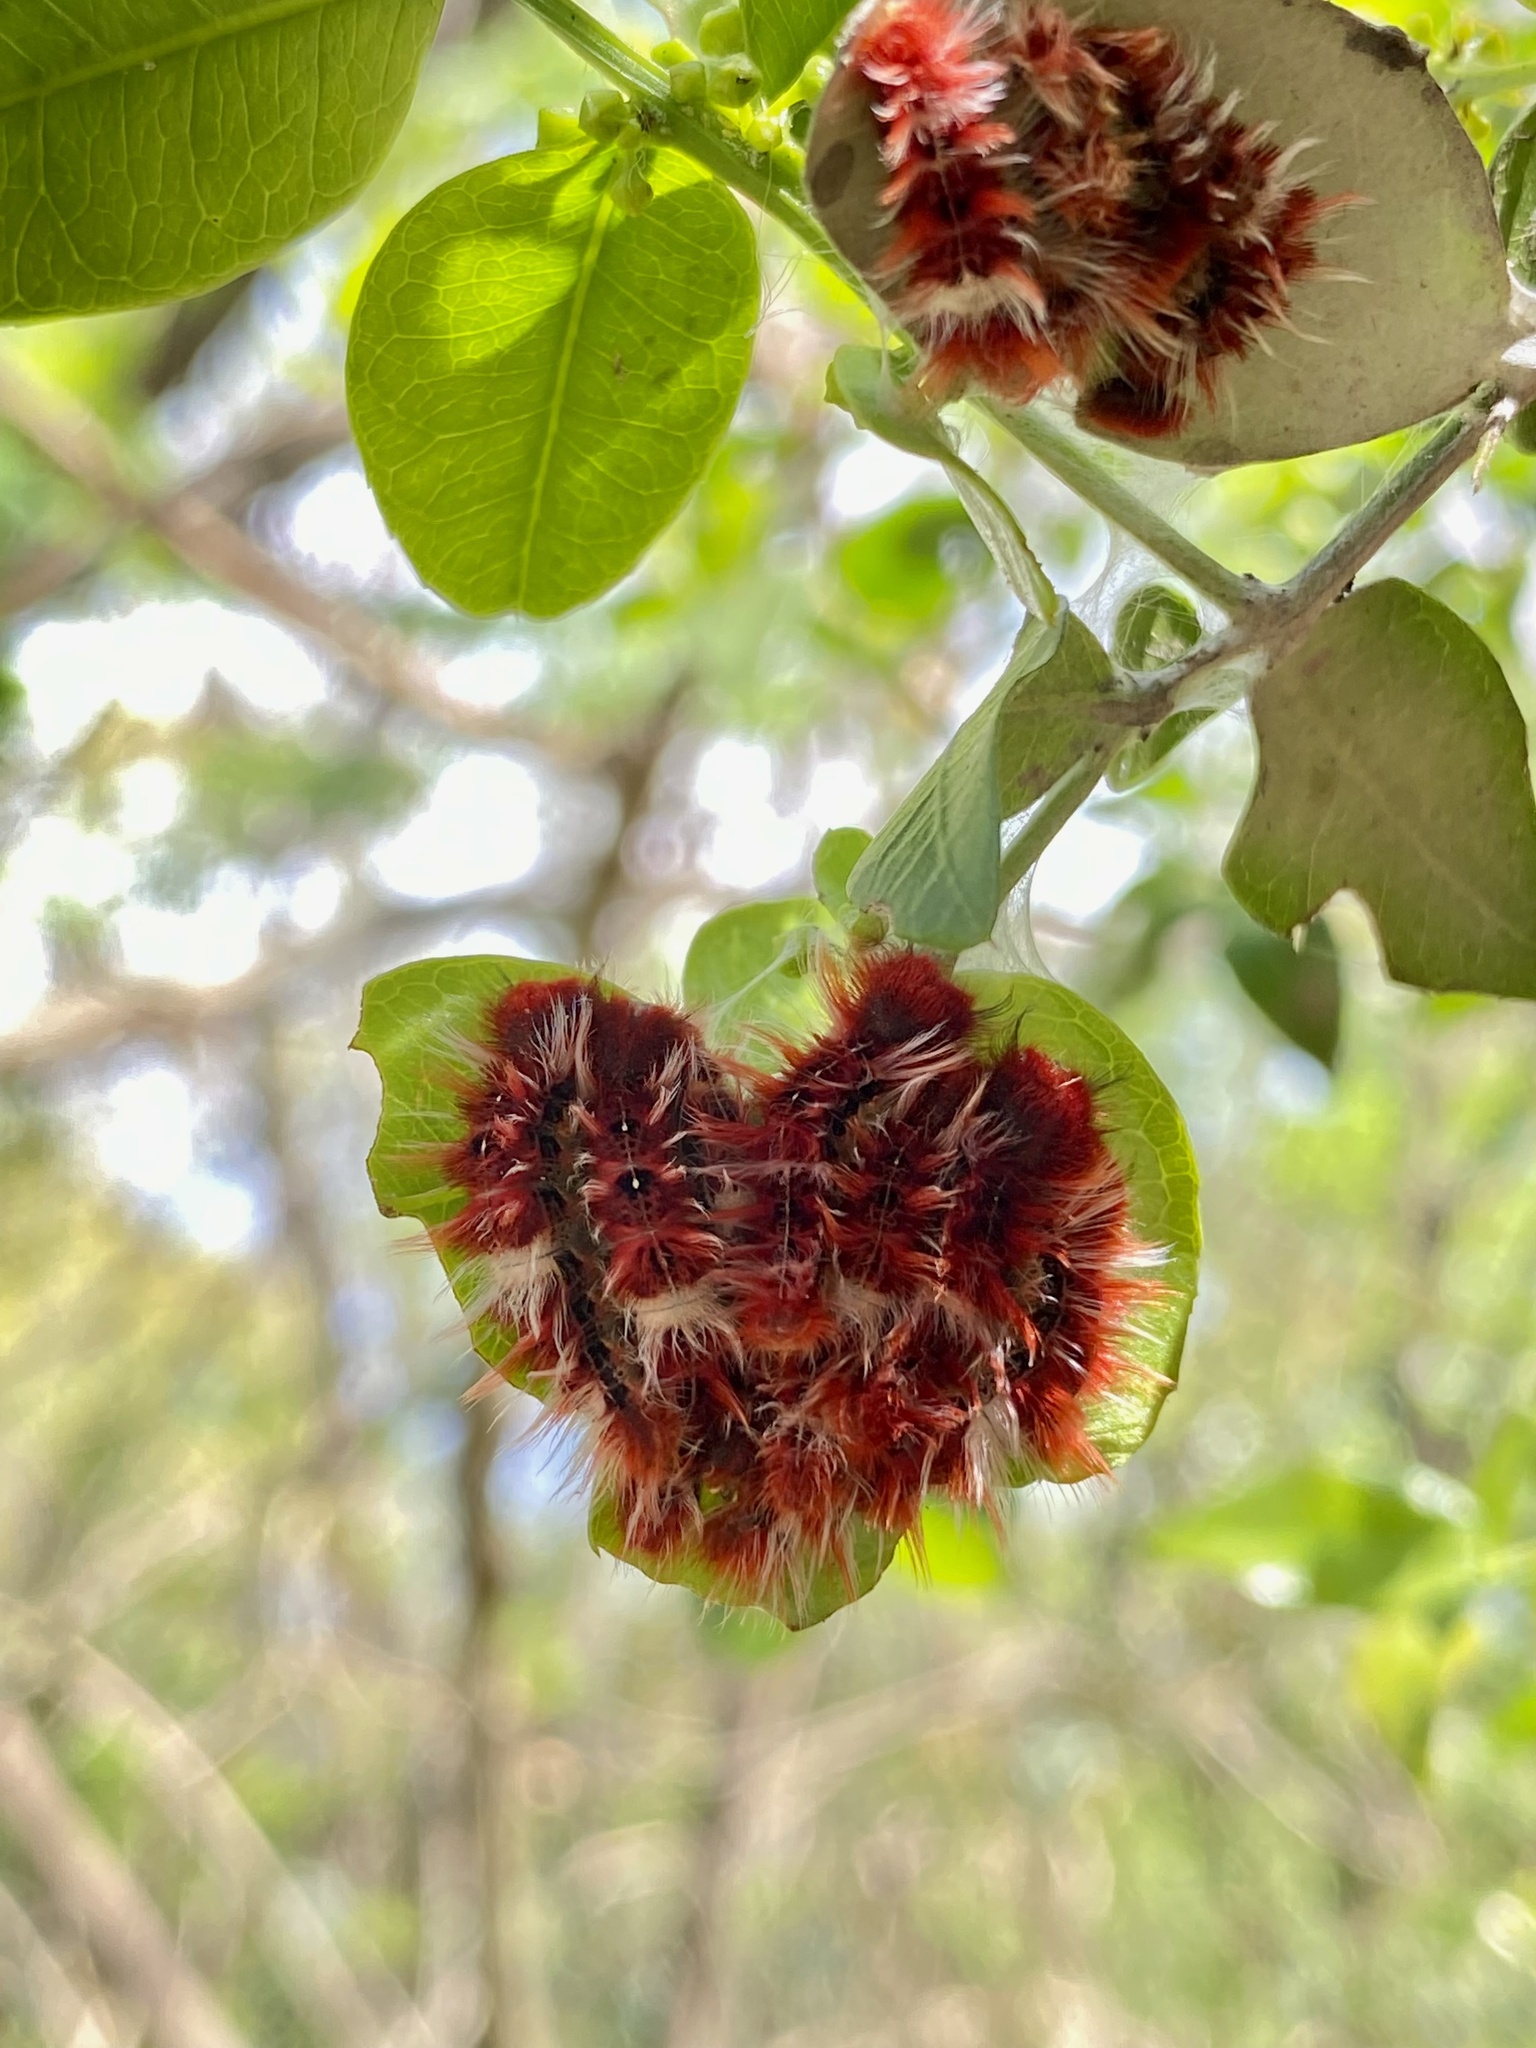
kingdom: Animalia
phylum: Arthropoda
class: Insecta
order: Lepidoptera
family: Nymphalidae
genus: Morpho
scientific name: Morpho epistrophus
